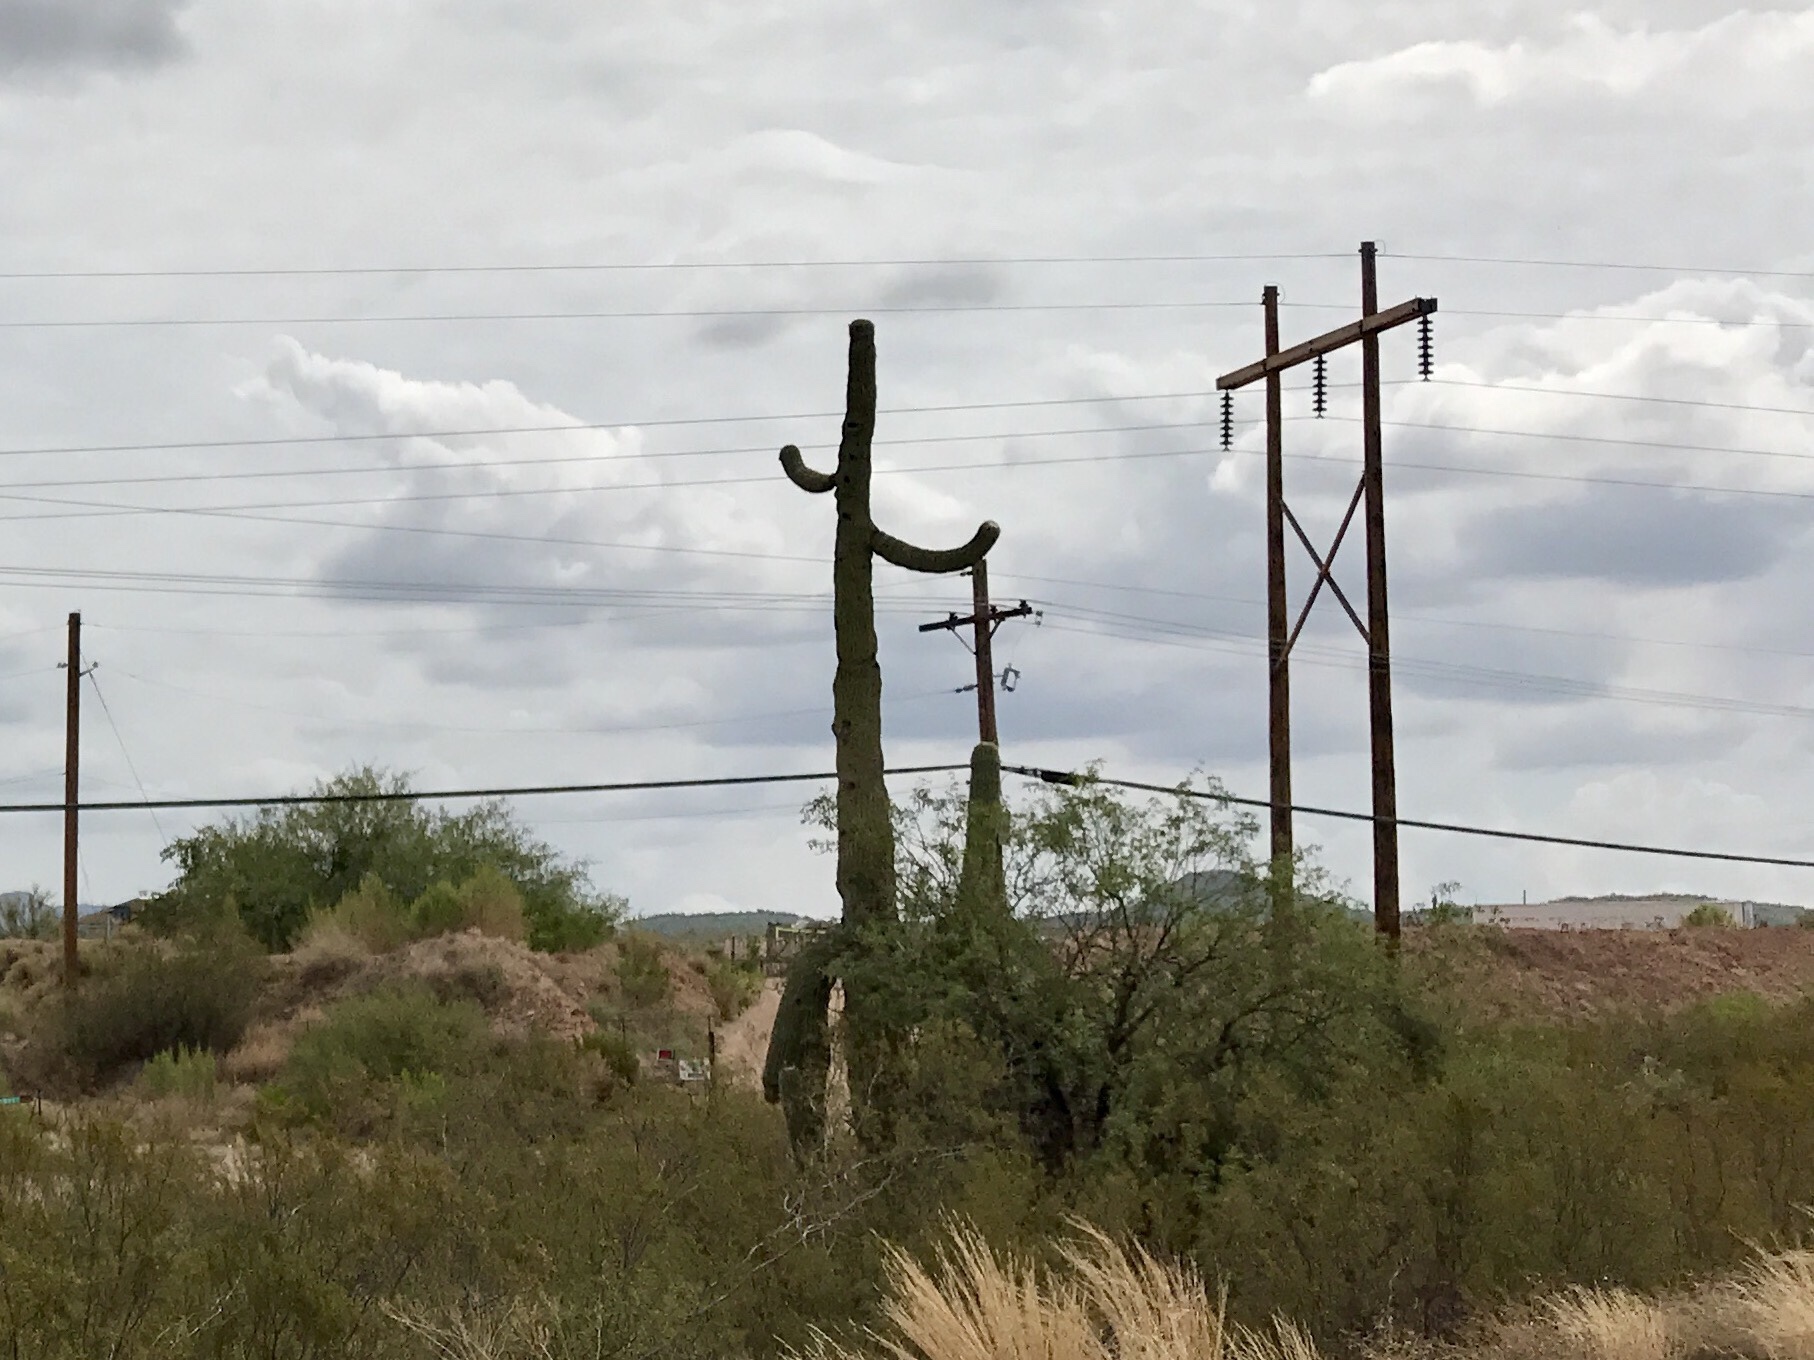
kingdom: Plantae
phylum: Tracheophyta
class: Magnoliopsida
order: Caryophyllales
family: Cactaceae
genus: Carnegiea
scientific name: Carnegiea gigantea
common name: Saguaro
